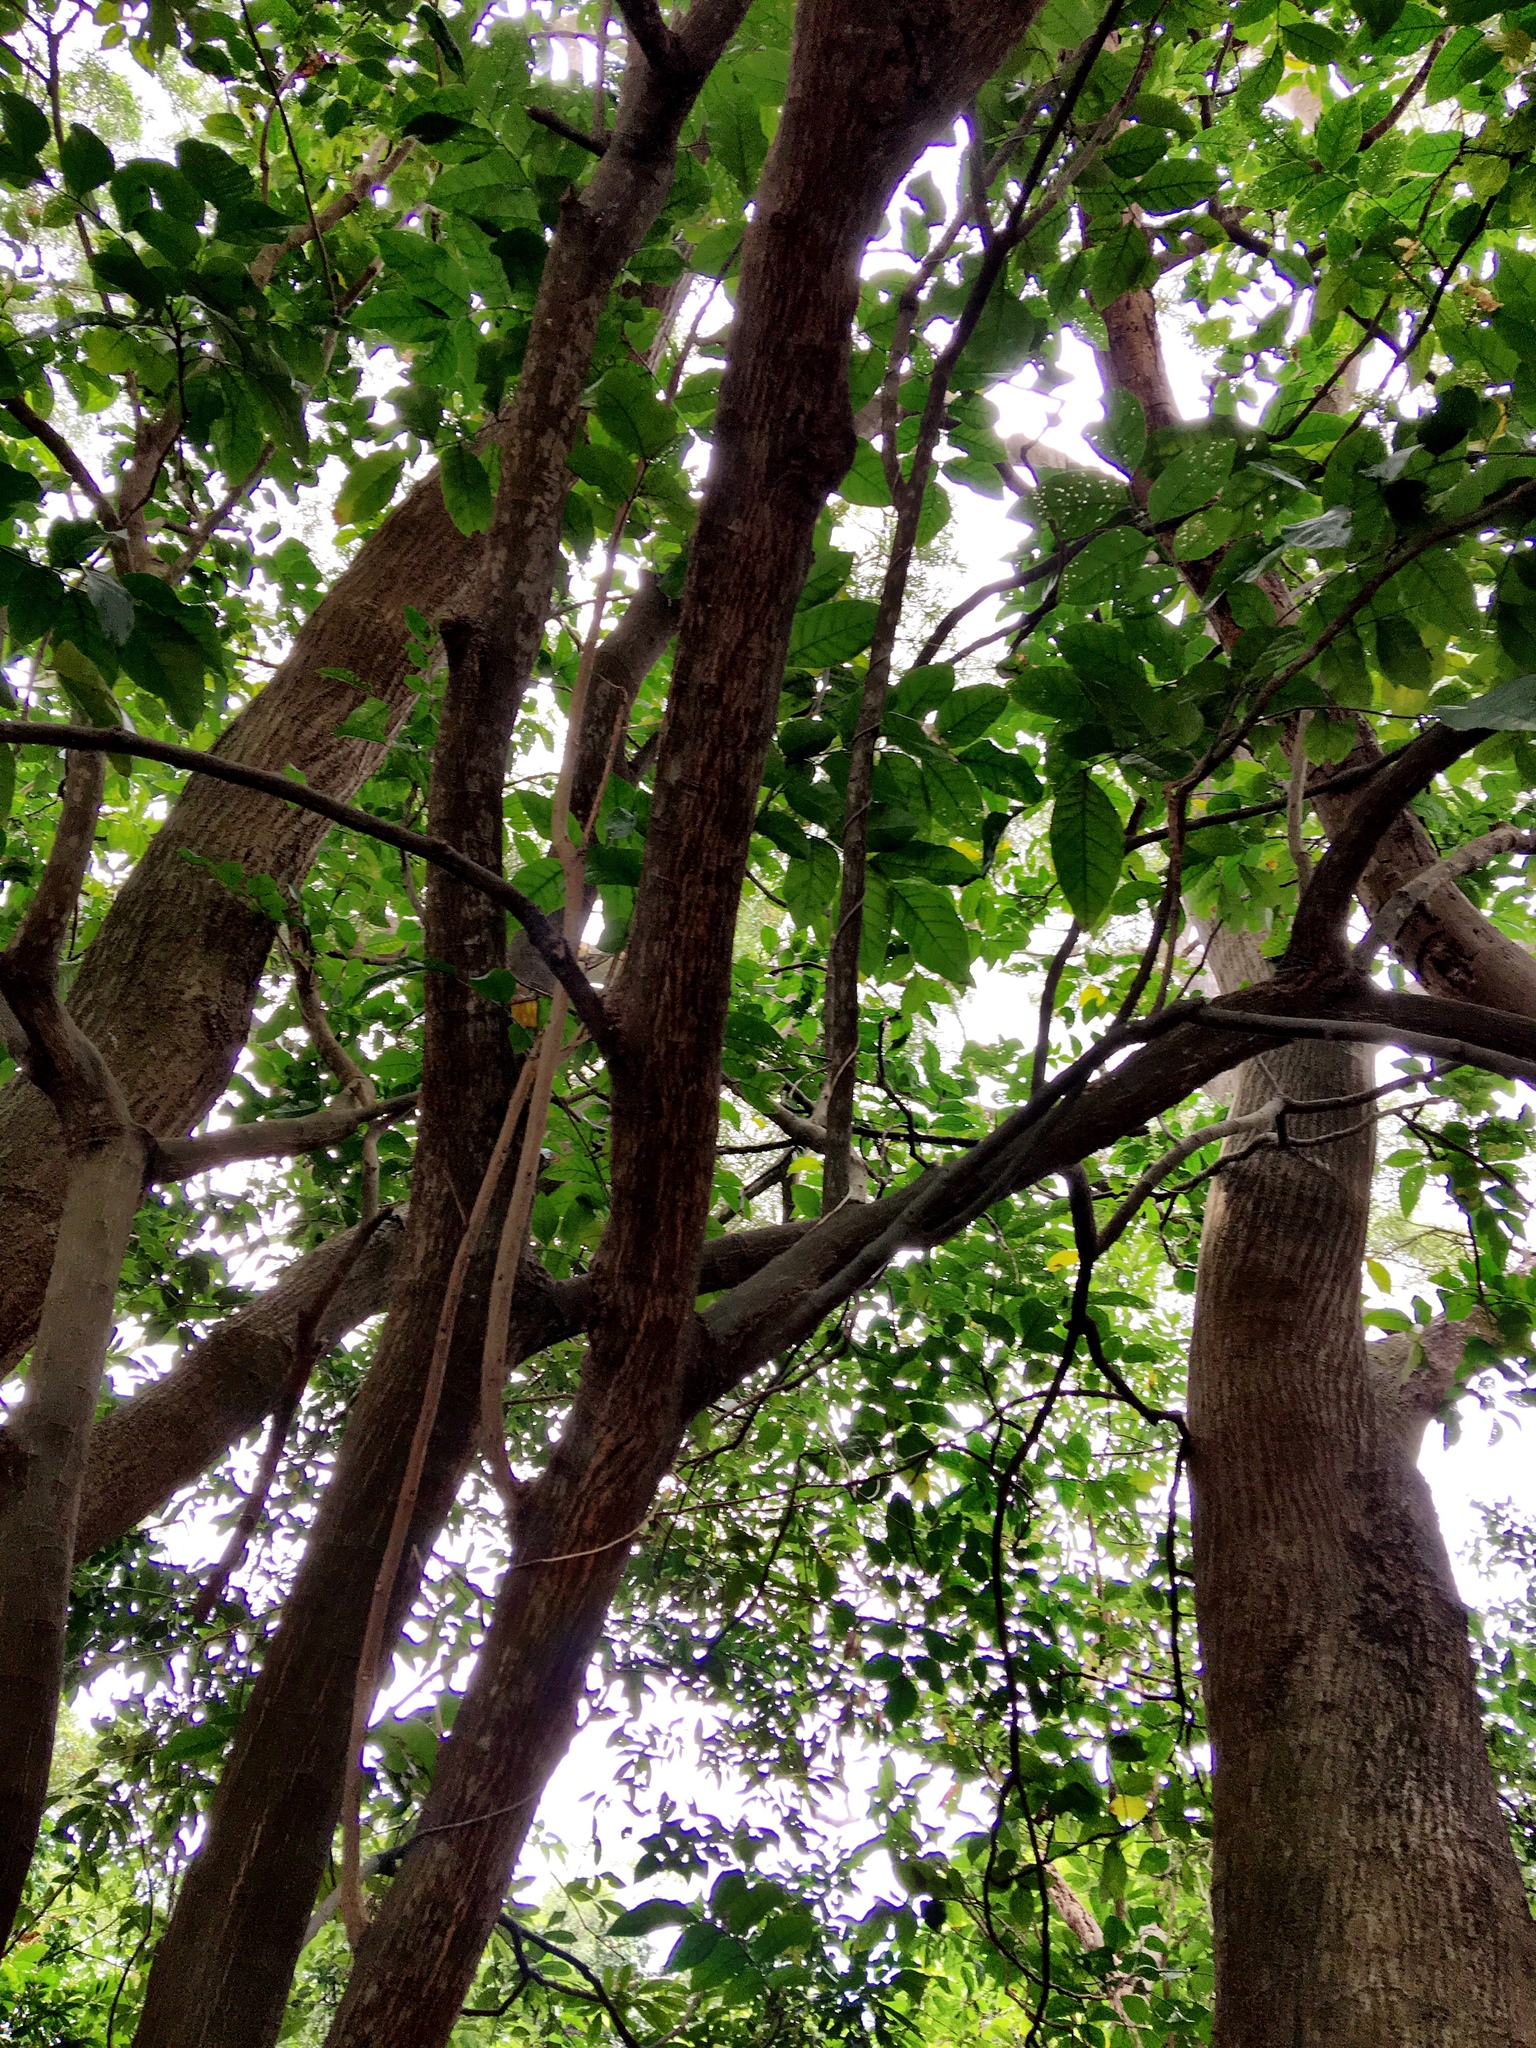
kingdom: Plantae
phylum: Tracheophyta
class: Magnoliopsida
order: Sapindales
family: Rutaceae
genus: Clausena
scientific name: Clausena lansium
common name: Wampi
